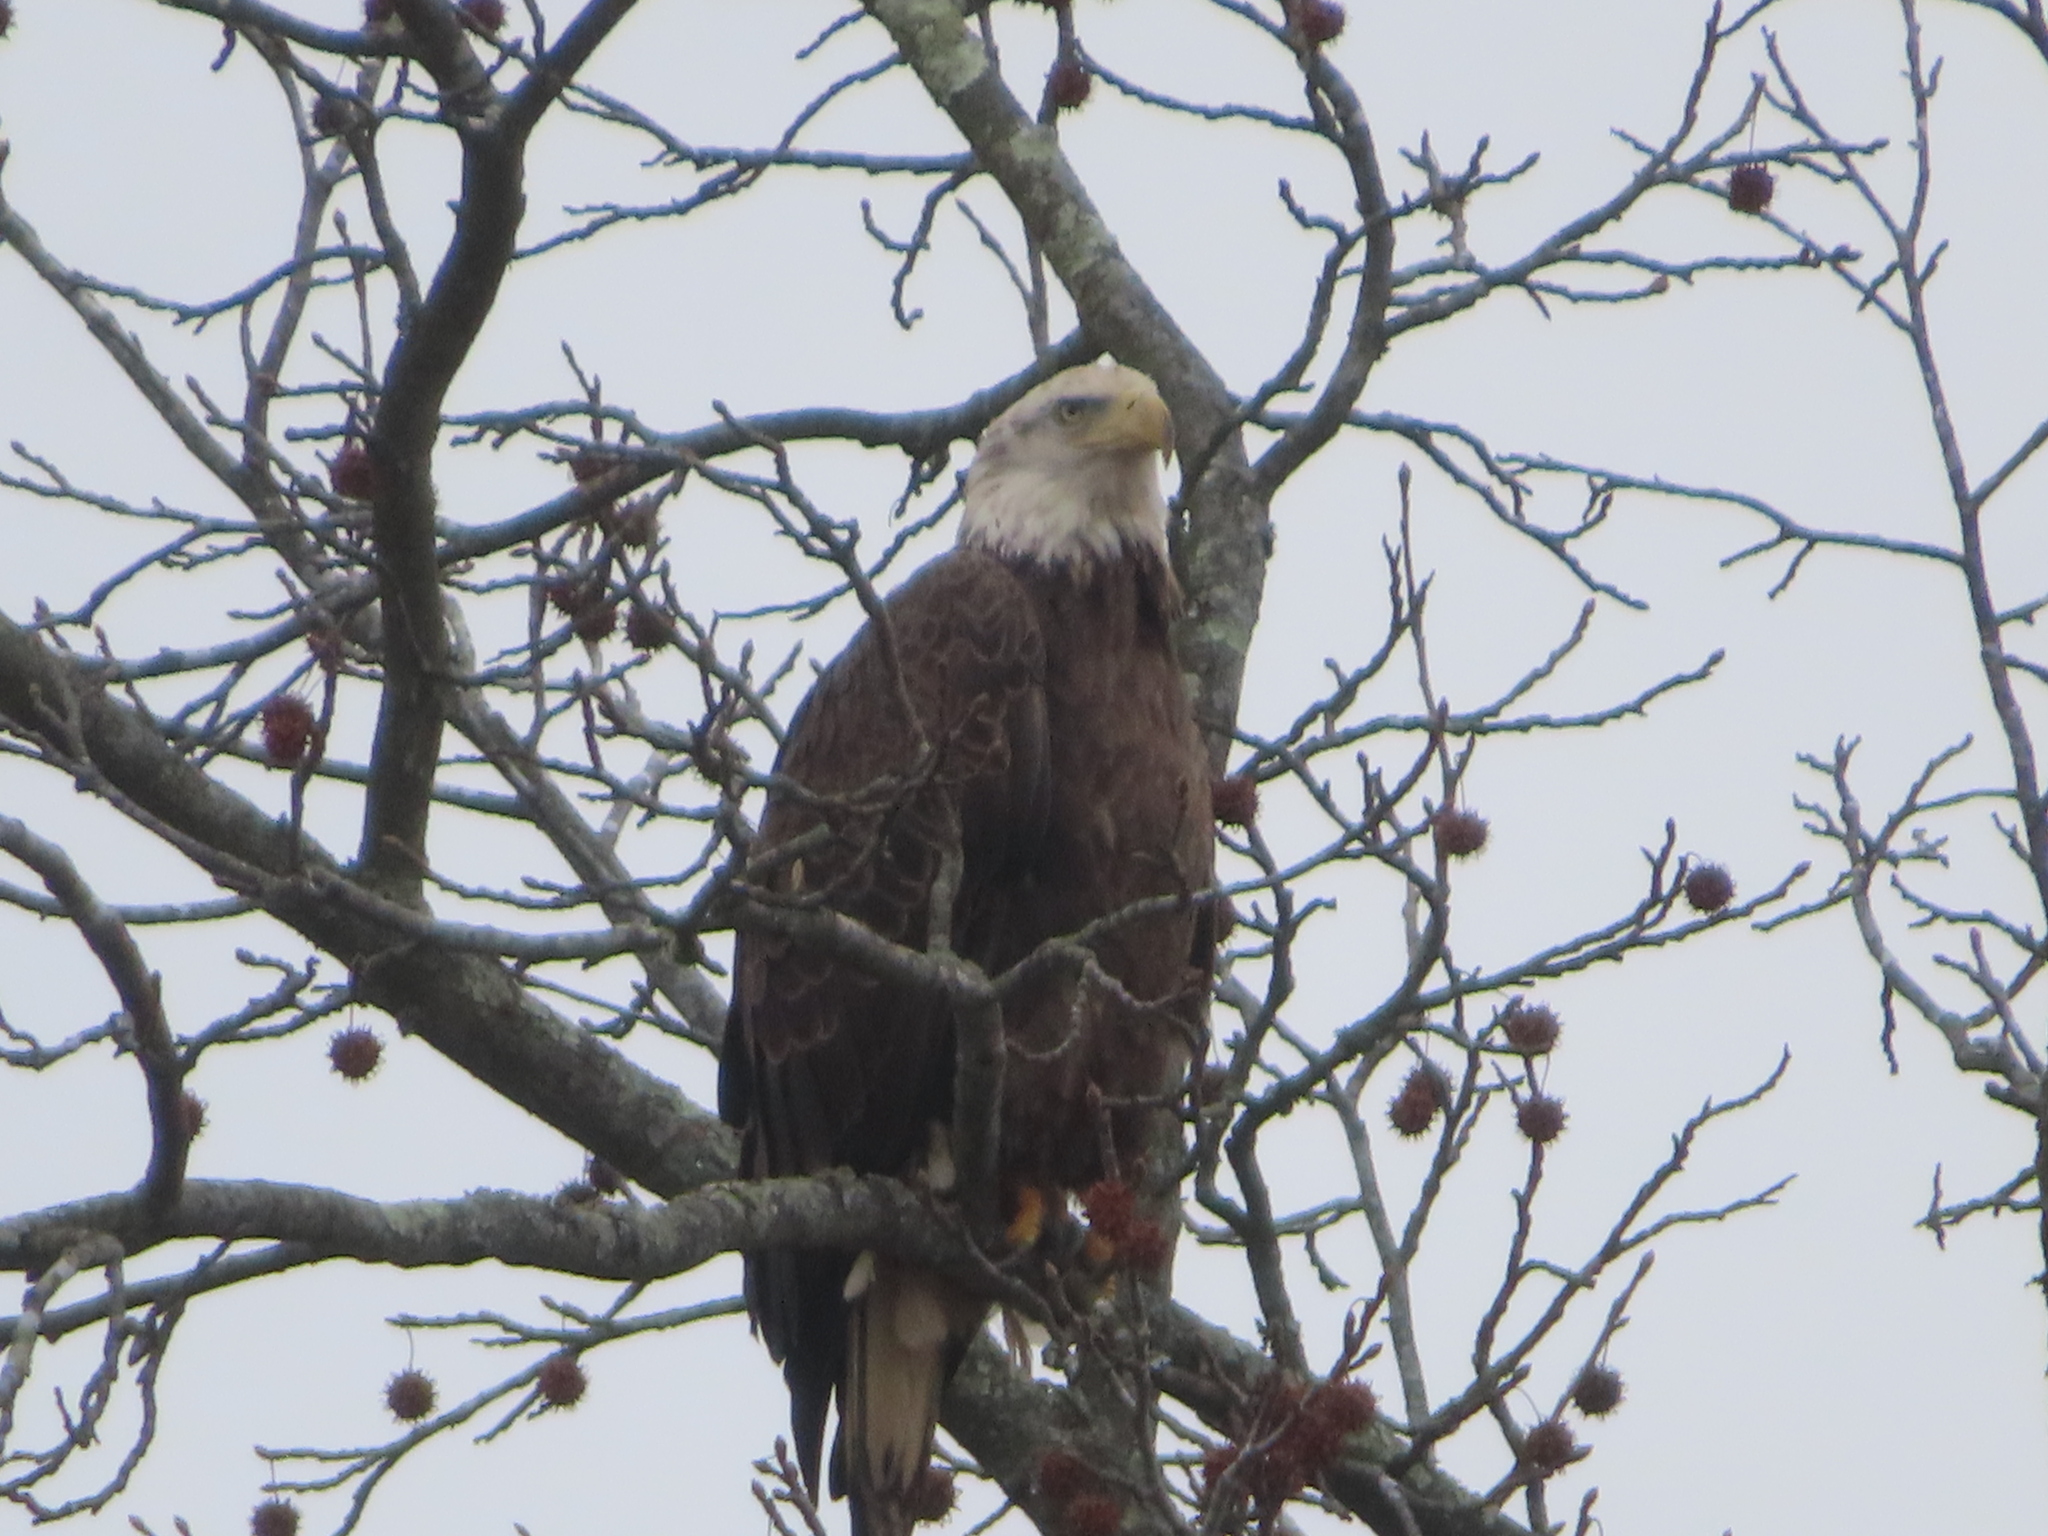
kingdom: Animalia
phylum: Chordata
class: Aves
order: Accipitriformes
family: Accipitridae
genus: Haliaeetus
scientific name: Haliaeetus leucocephalus
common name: Bald eagle
